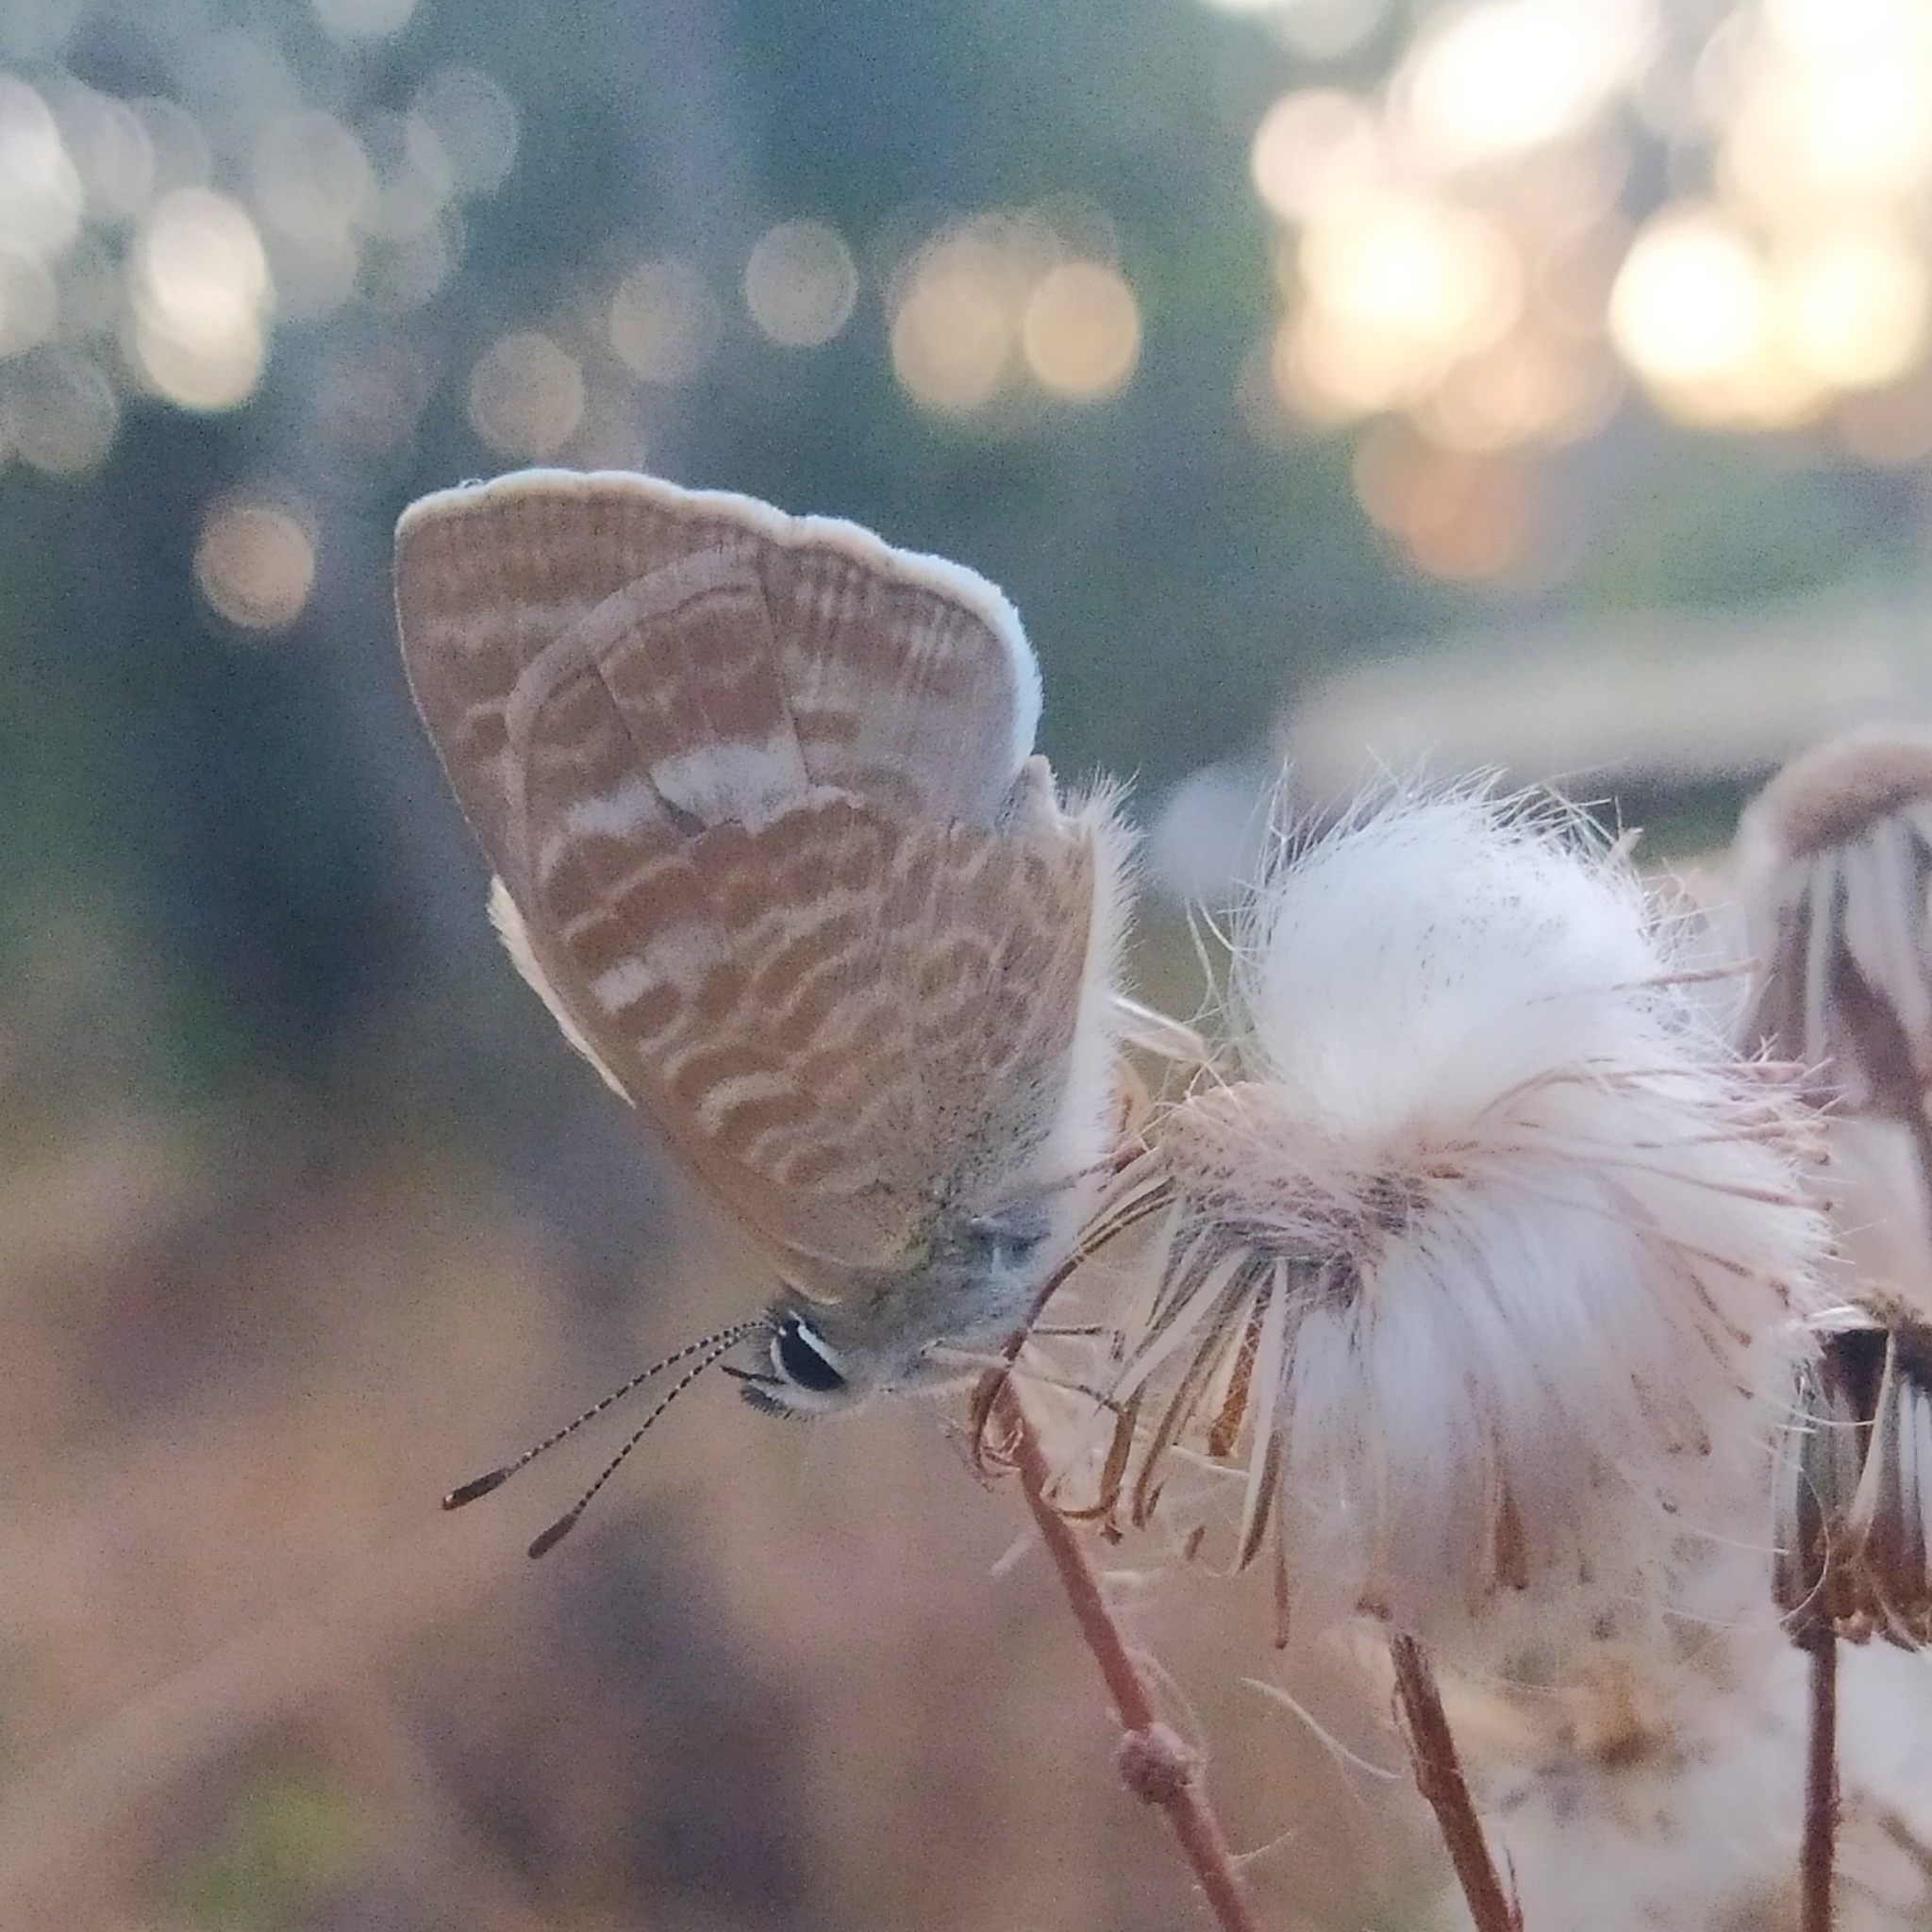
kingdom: Animalia
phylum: Arthropoda
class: Insecta
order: Lepidoptera
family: Lycaenidae
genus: Lampides
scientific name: Lampides boeticus
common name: Long-tailed blue
